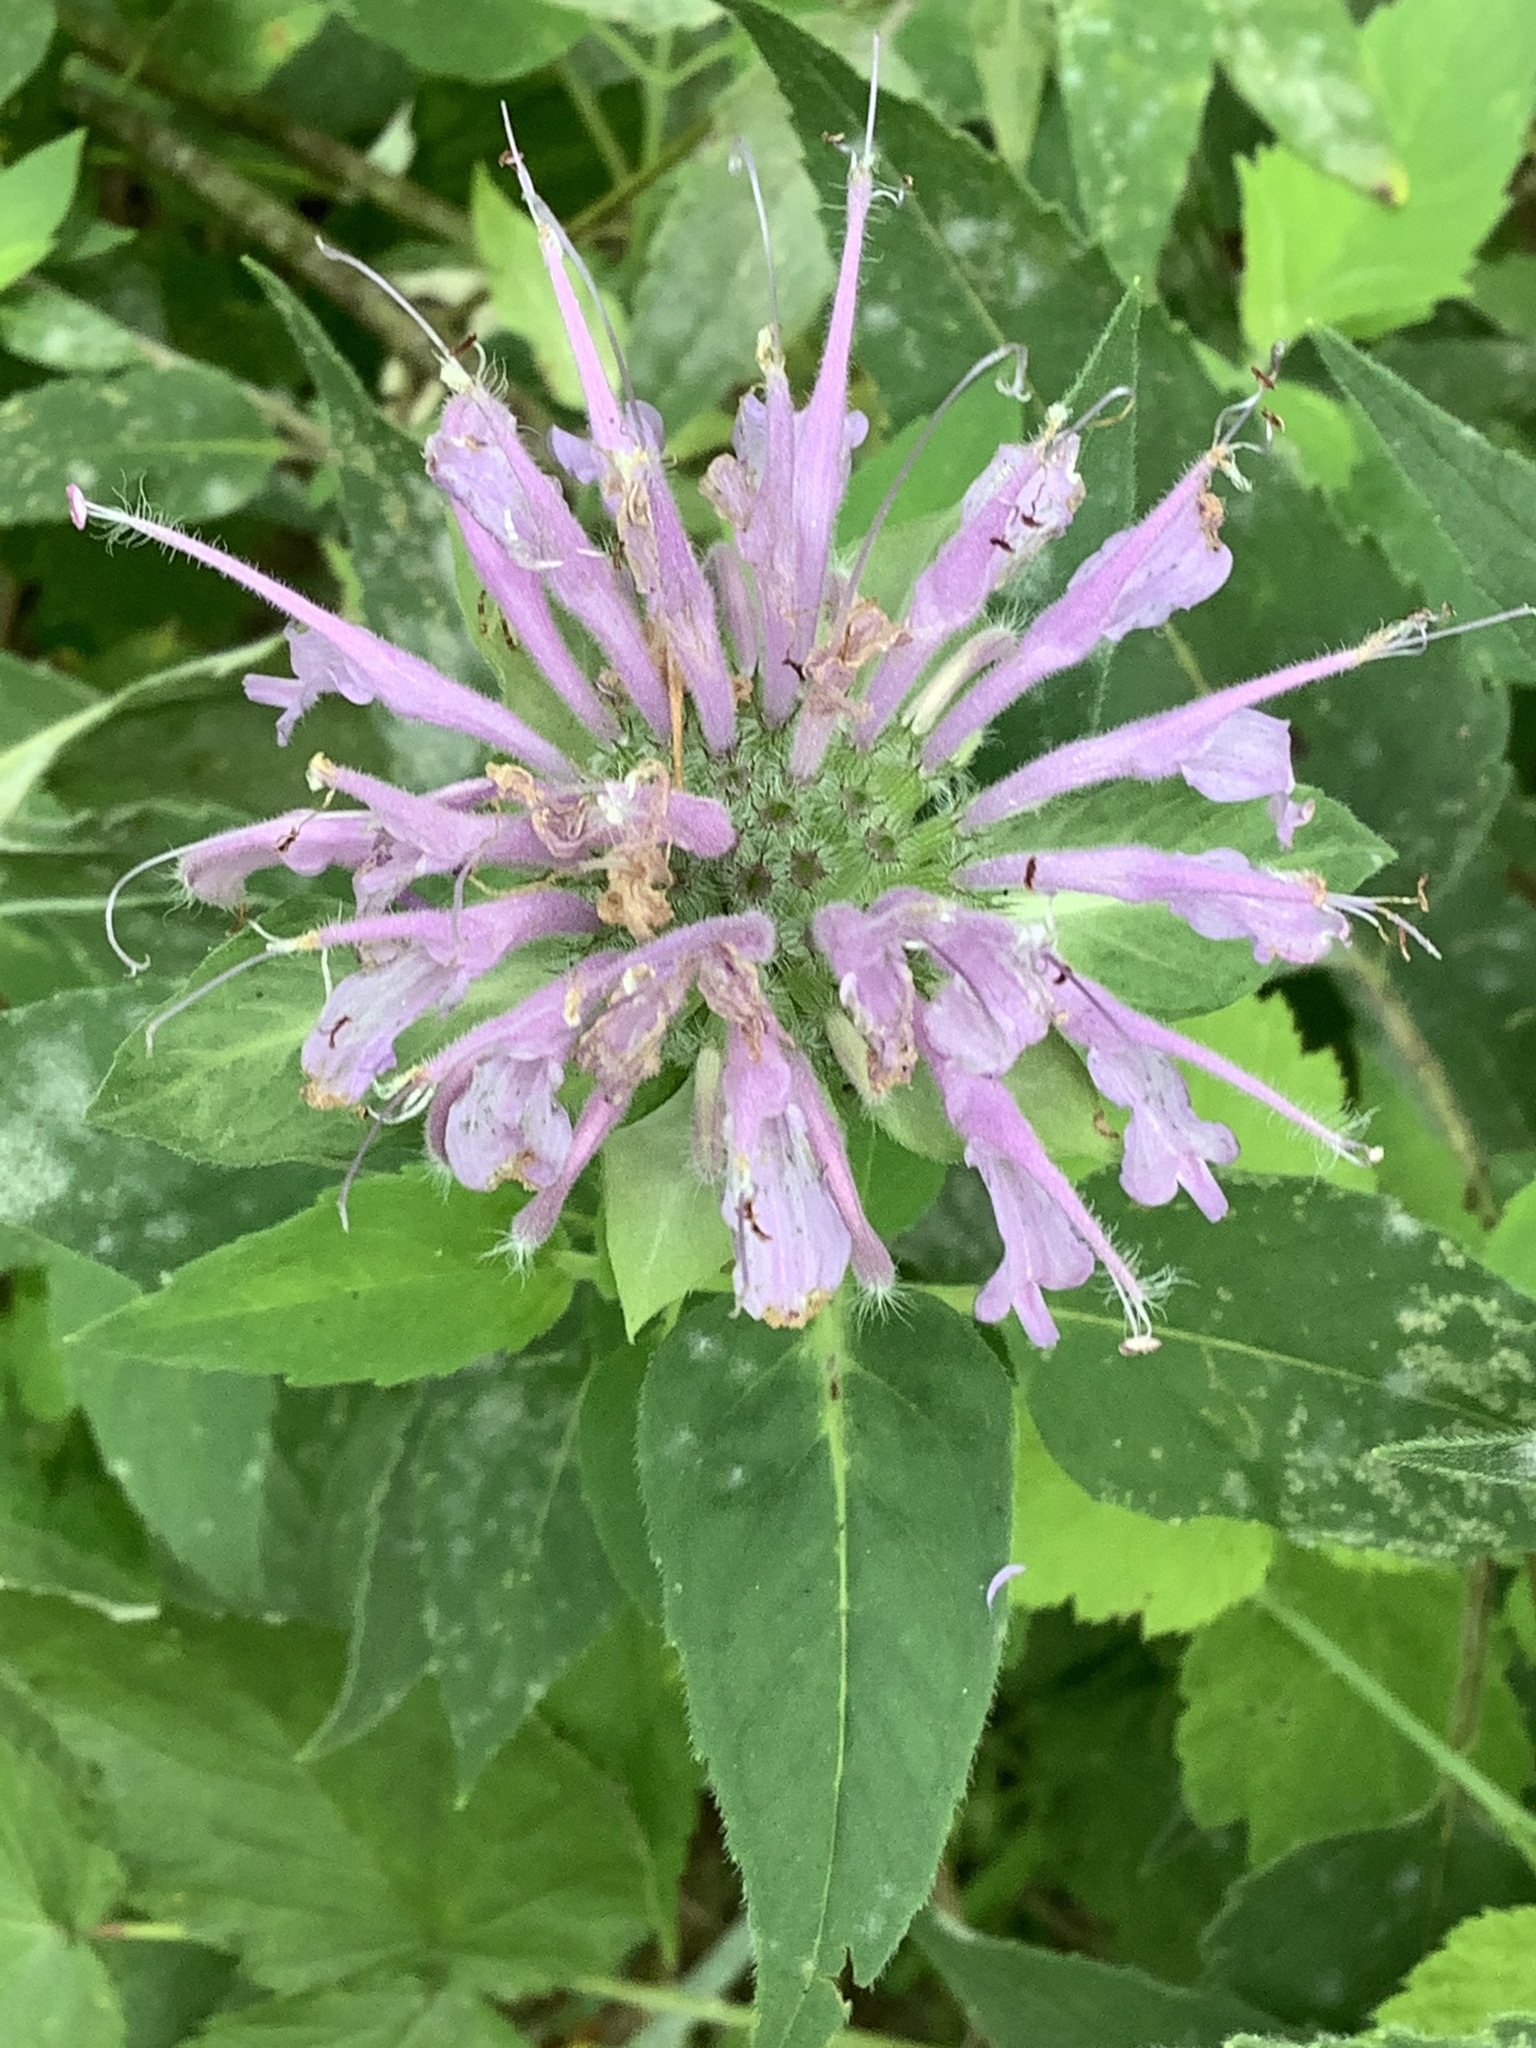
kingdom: Plantae
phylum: Tracheophyta
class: Magnoliopsida
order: Lamiales
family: Lamiaceae
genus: Monarda
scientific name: Monarda fistulosa
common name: Purple beebalm
